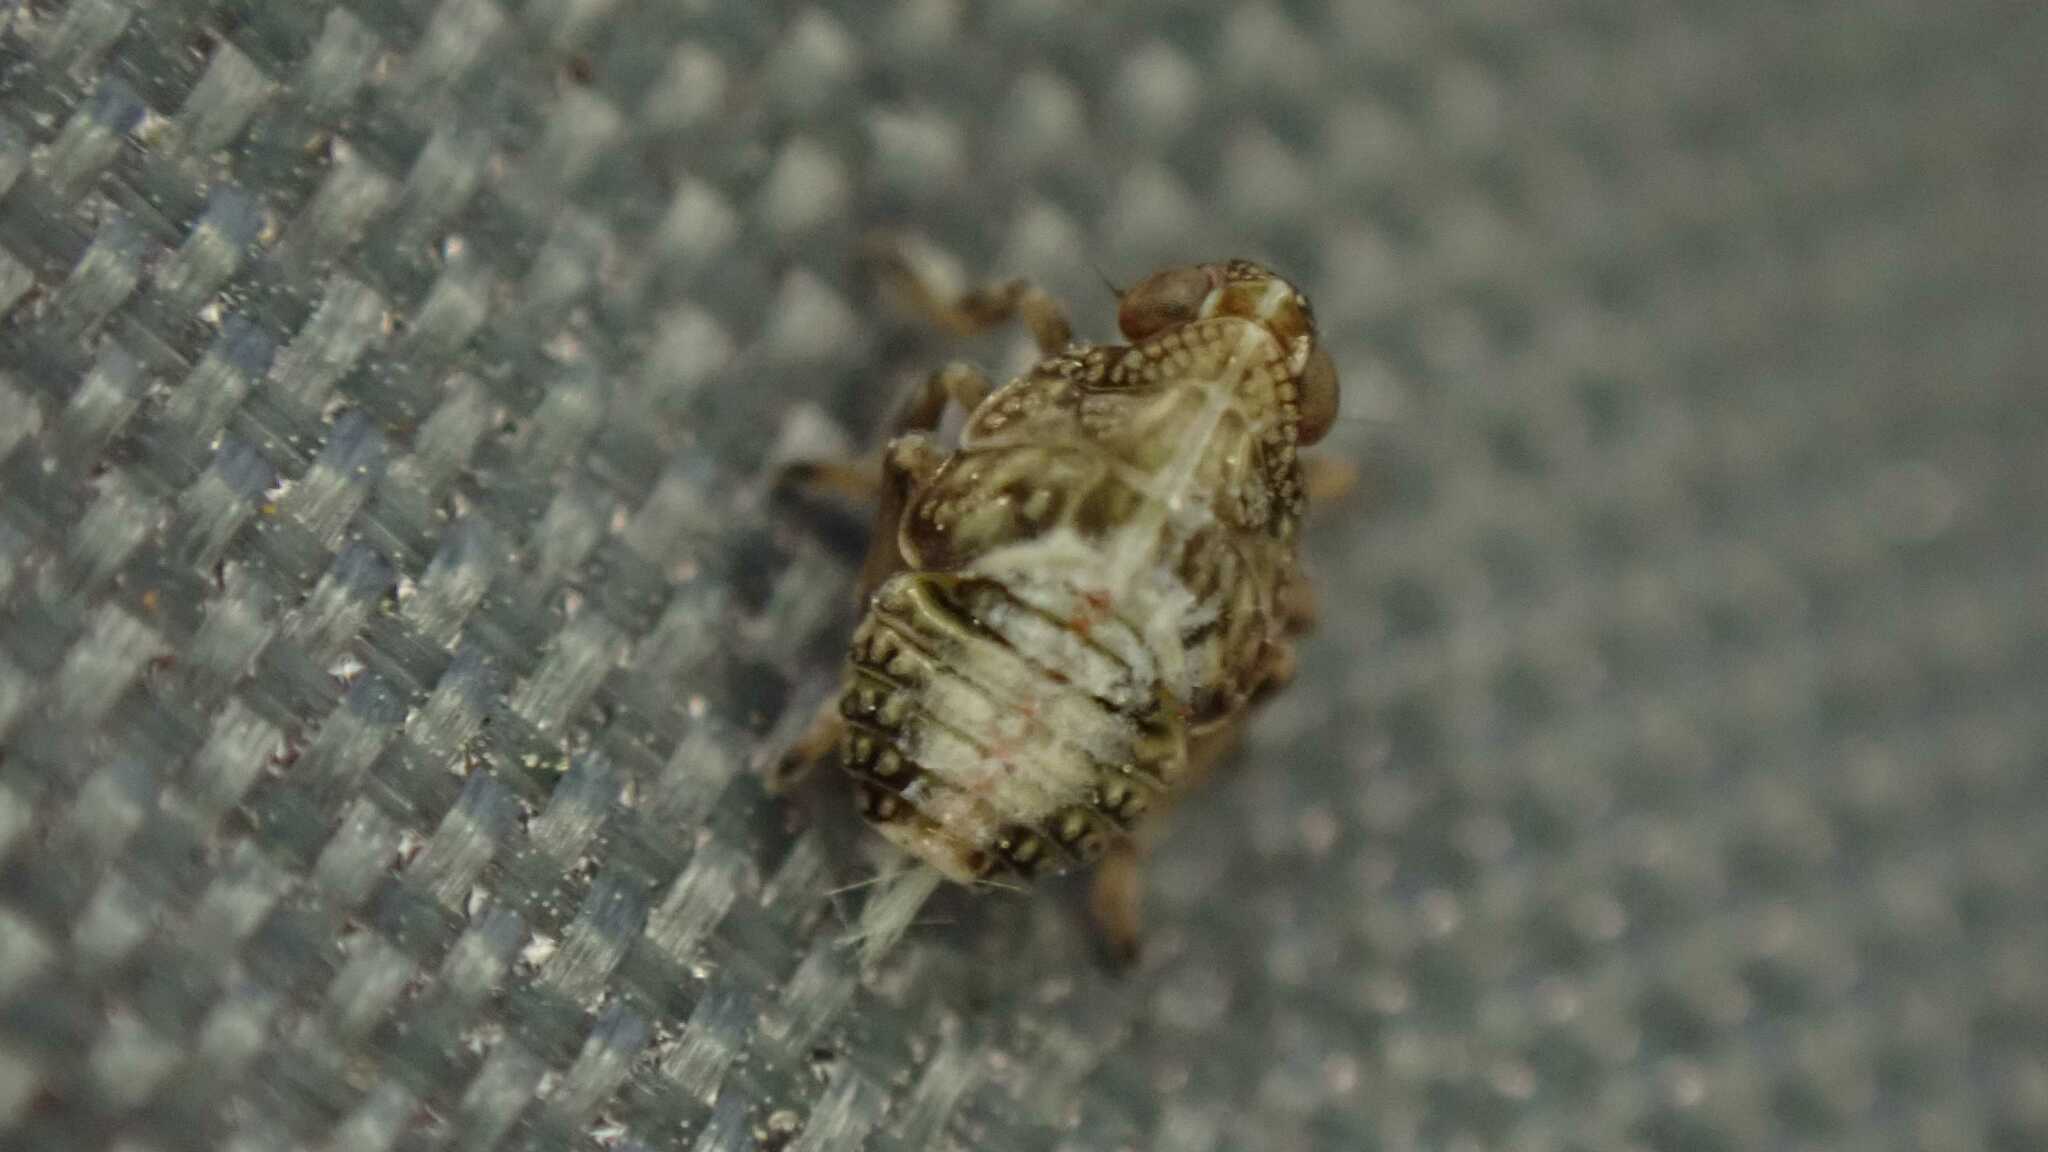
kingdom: Animalia
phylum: Arthropoda
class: Insecta
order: Hemiptera
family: Issidae
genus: Issus
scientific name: Issus
